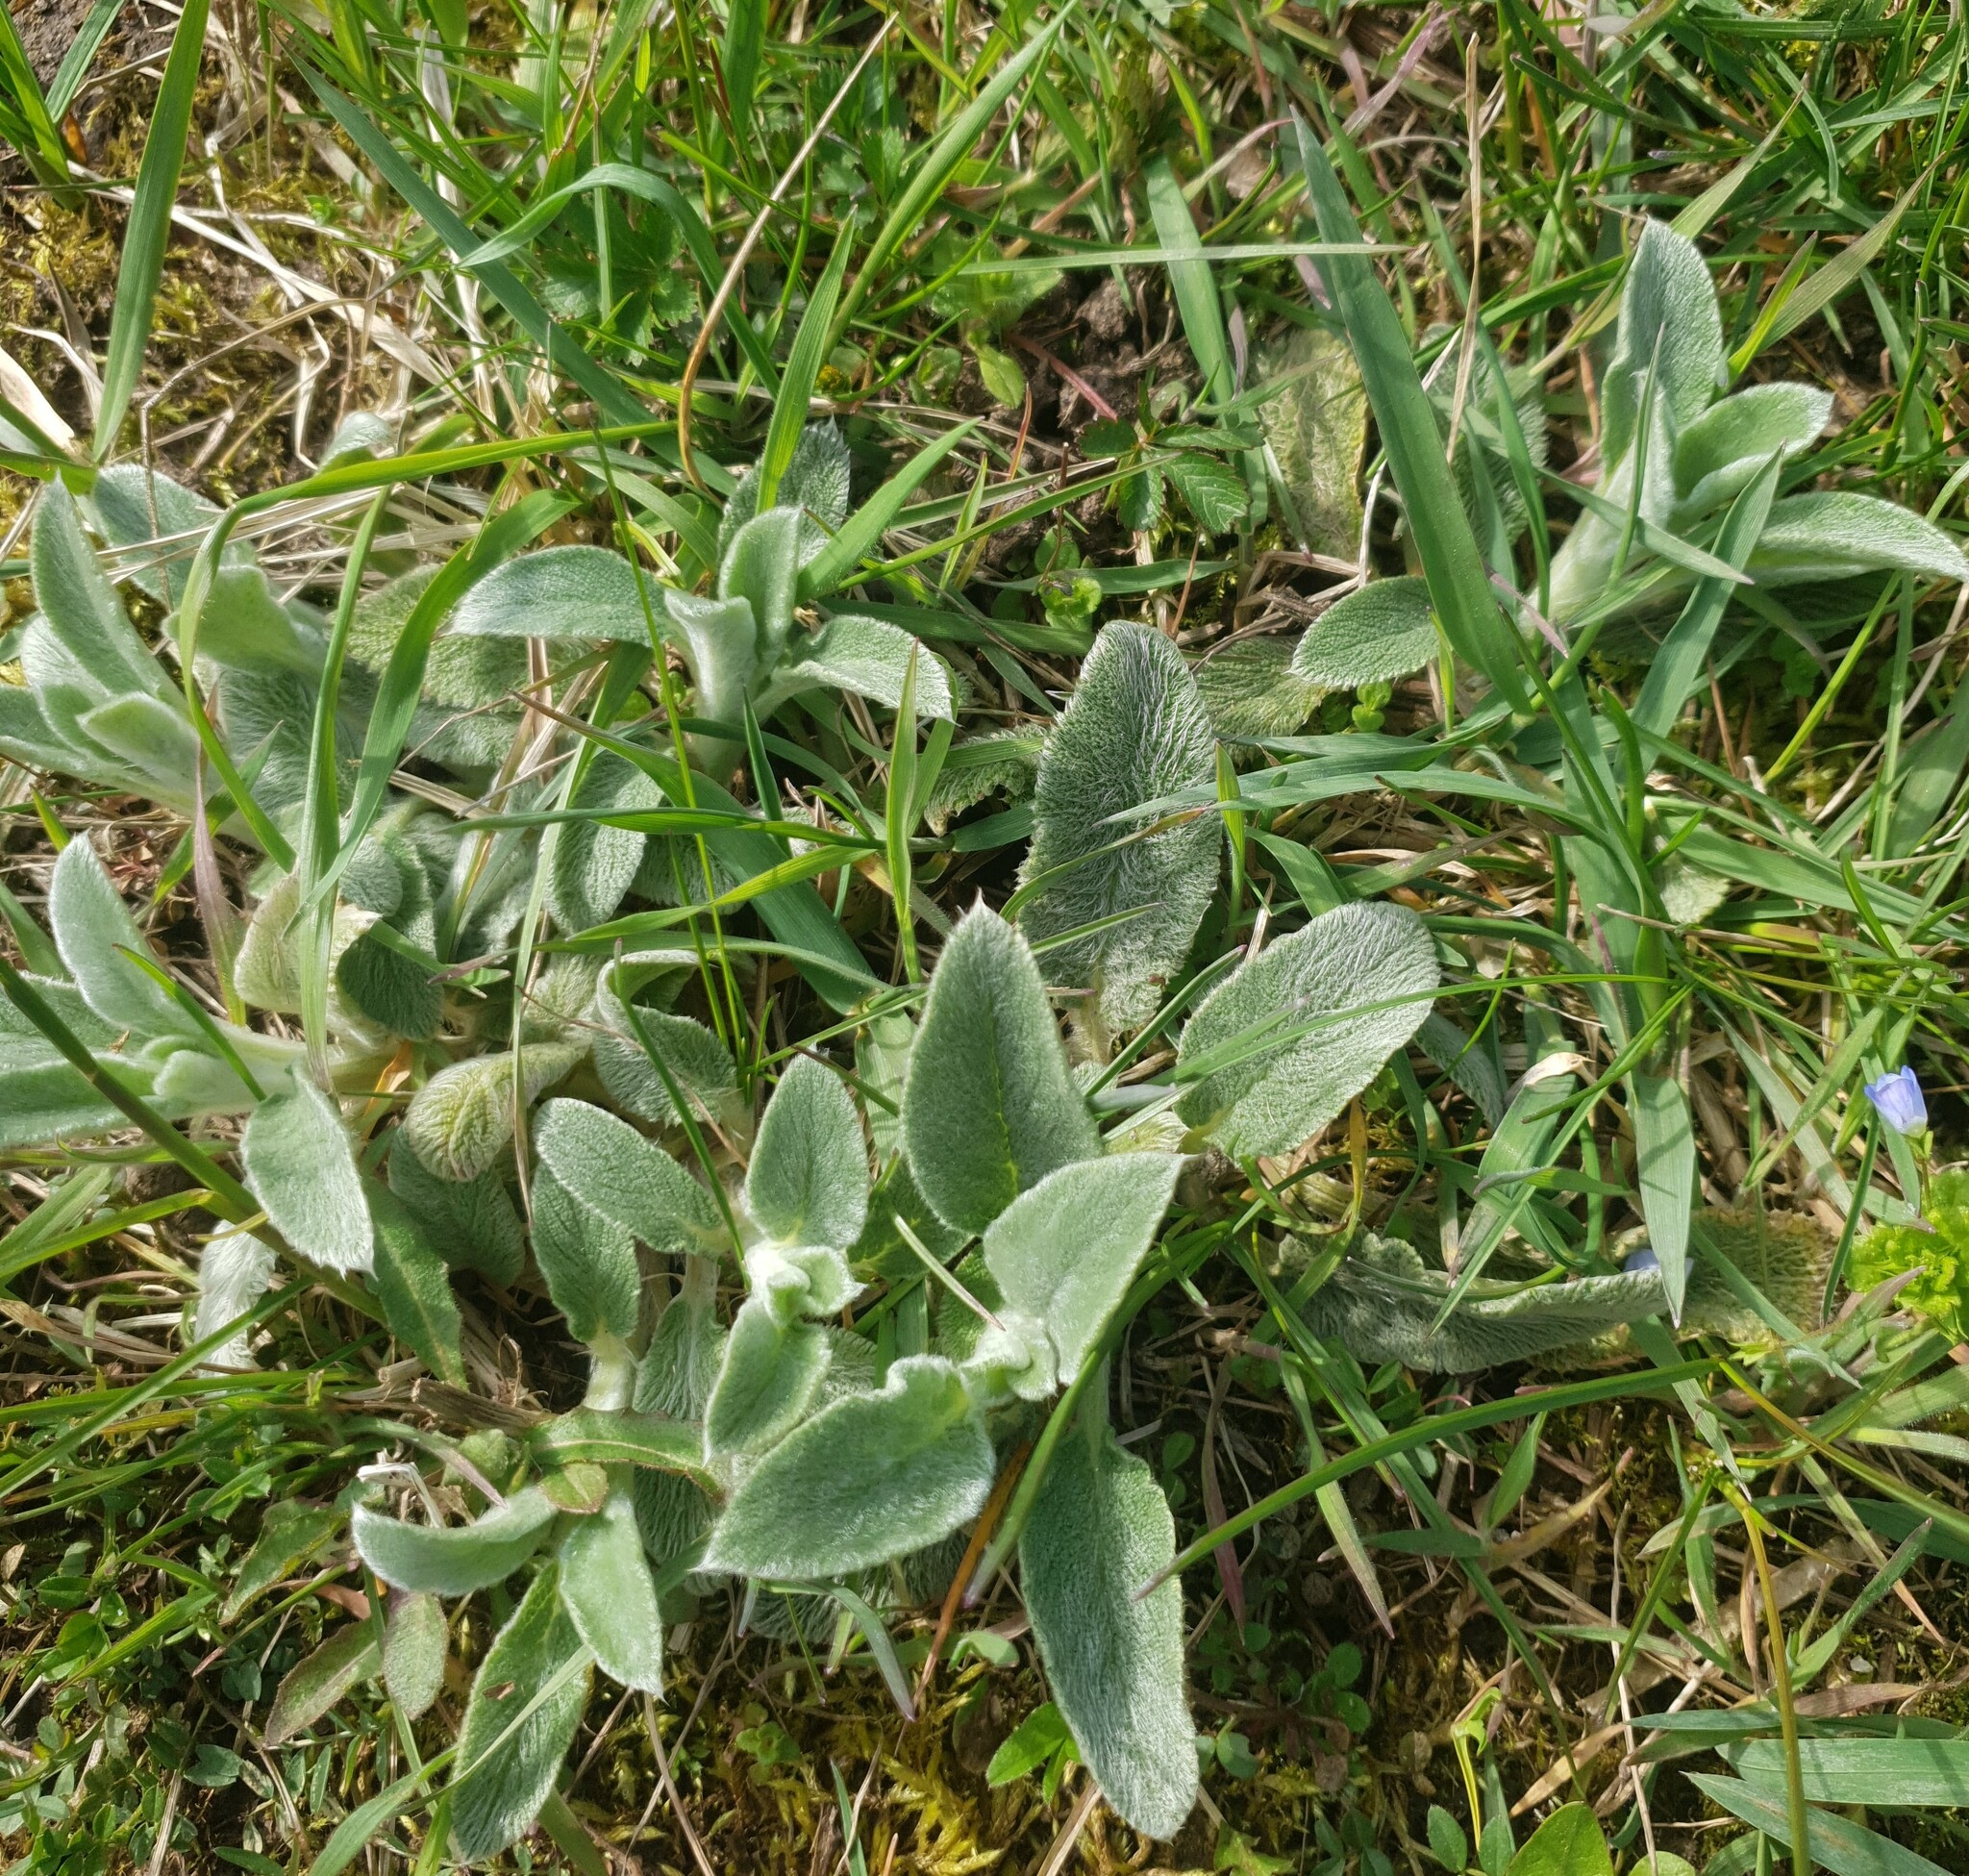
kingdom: Plantae
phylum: Tracheophyta
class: Magnoliopsida
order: Lamiales
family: Lamiaceae
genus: Stachys
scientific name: Stachys byzantina
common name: Lamb's-ear
